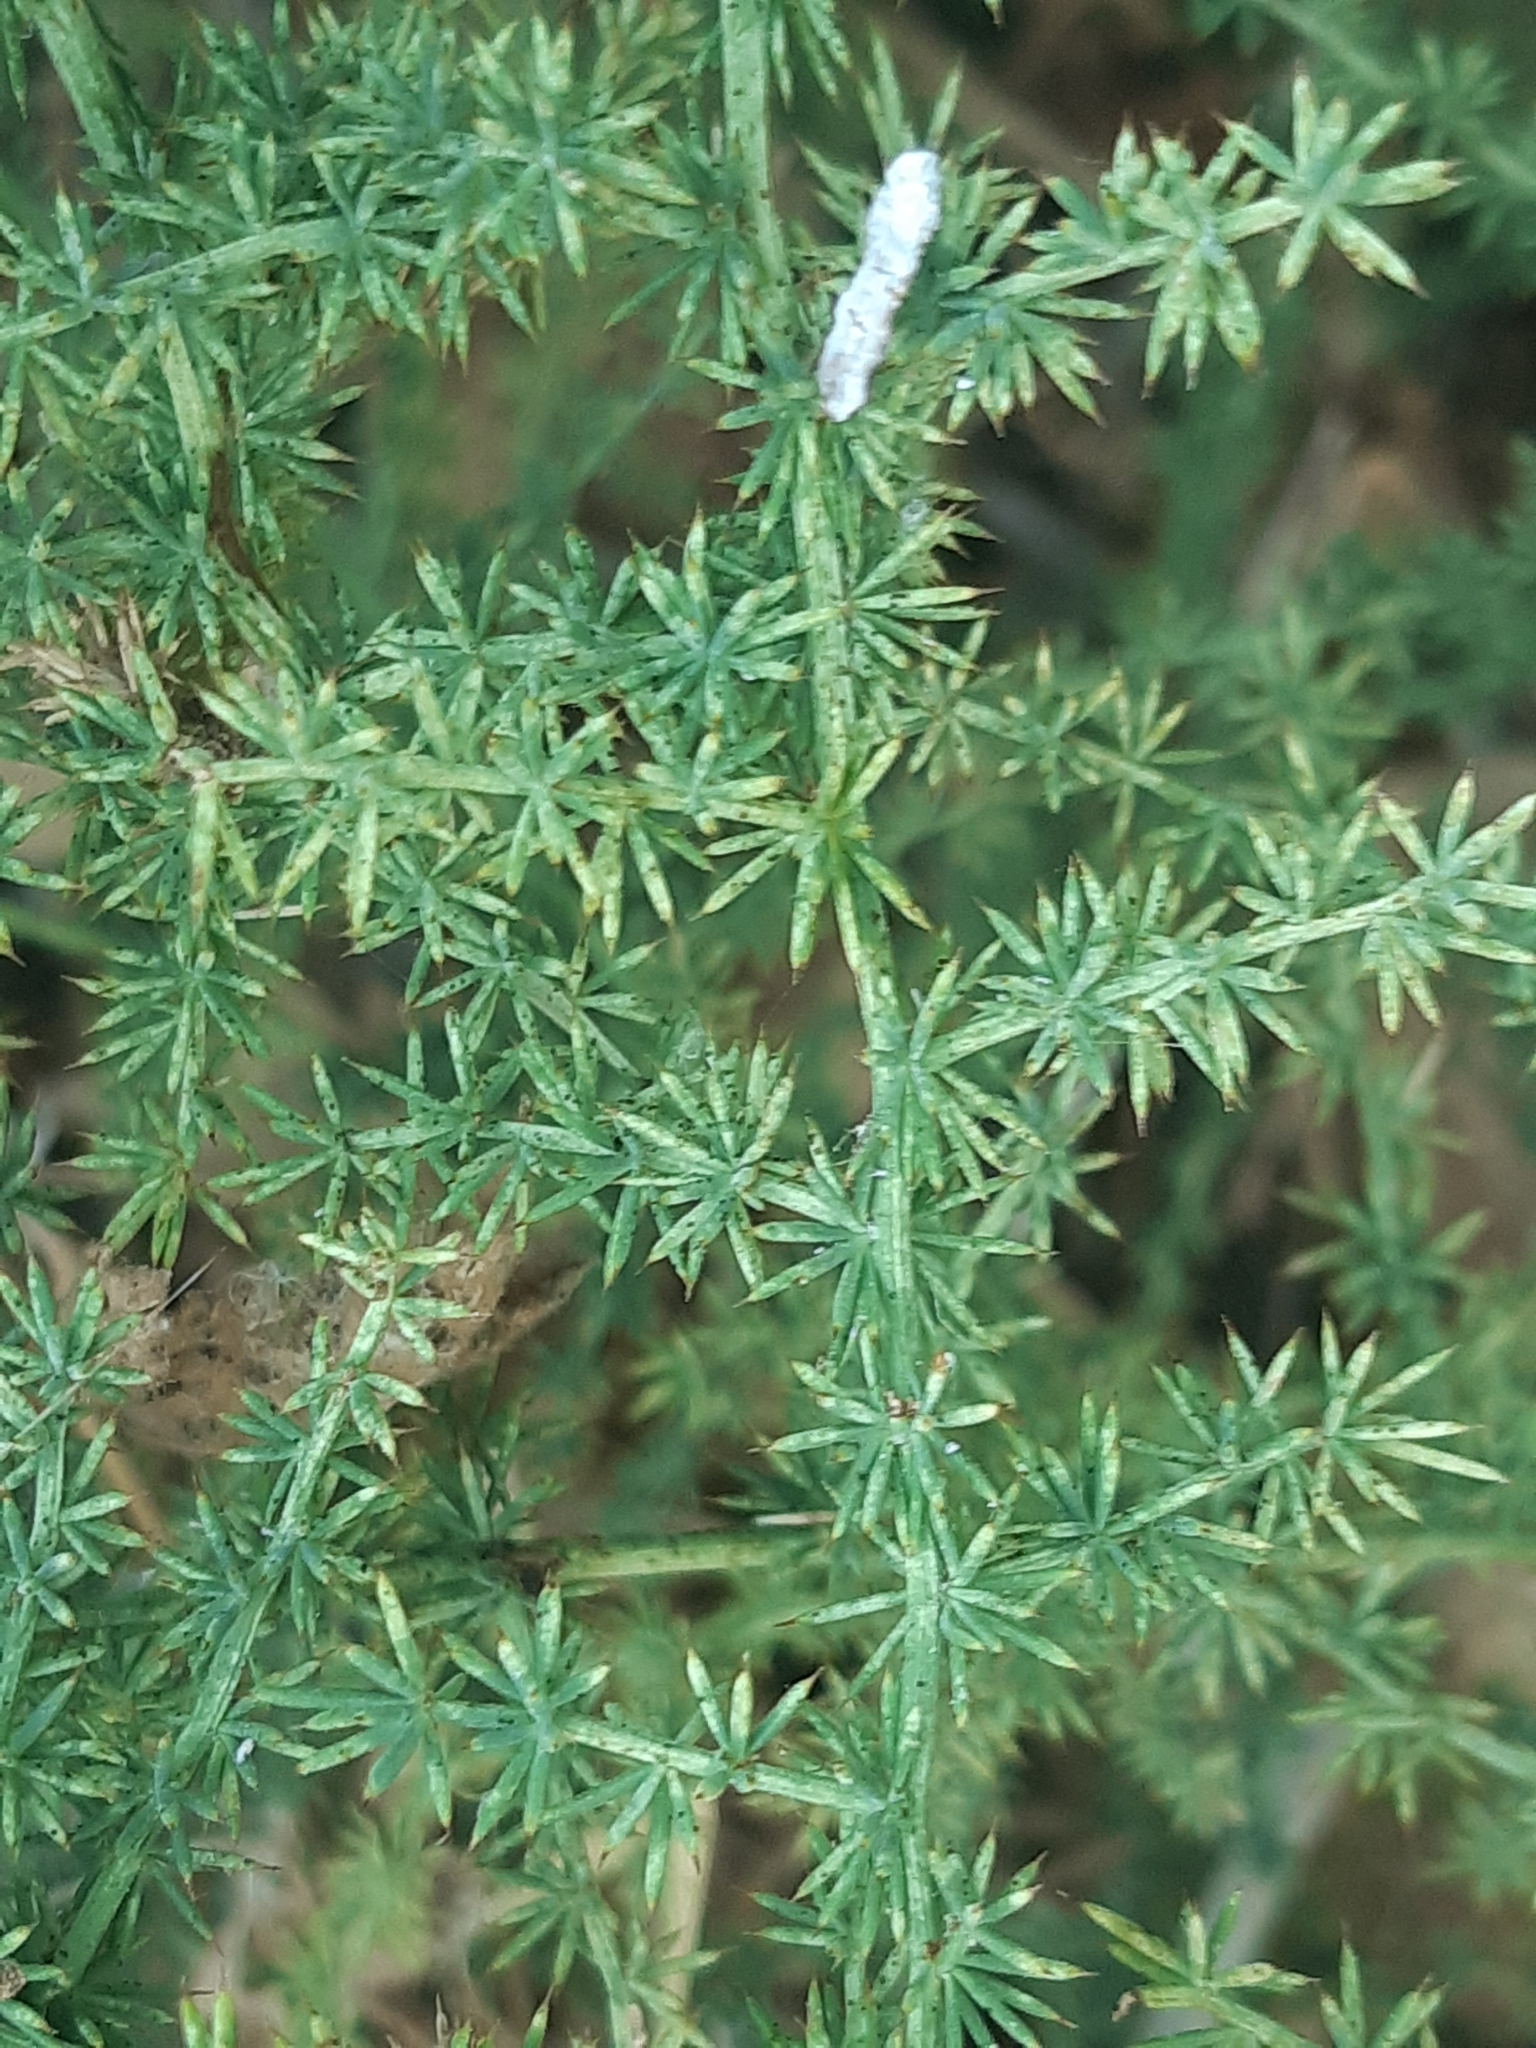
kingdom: Plantae
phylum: Tracheophyta
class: Liliopsida
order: Asparagales
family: Asparagaceae
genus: Asparagus
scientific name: Asparagus acutifolius
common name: Wild asparagus
